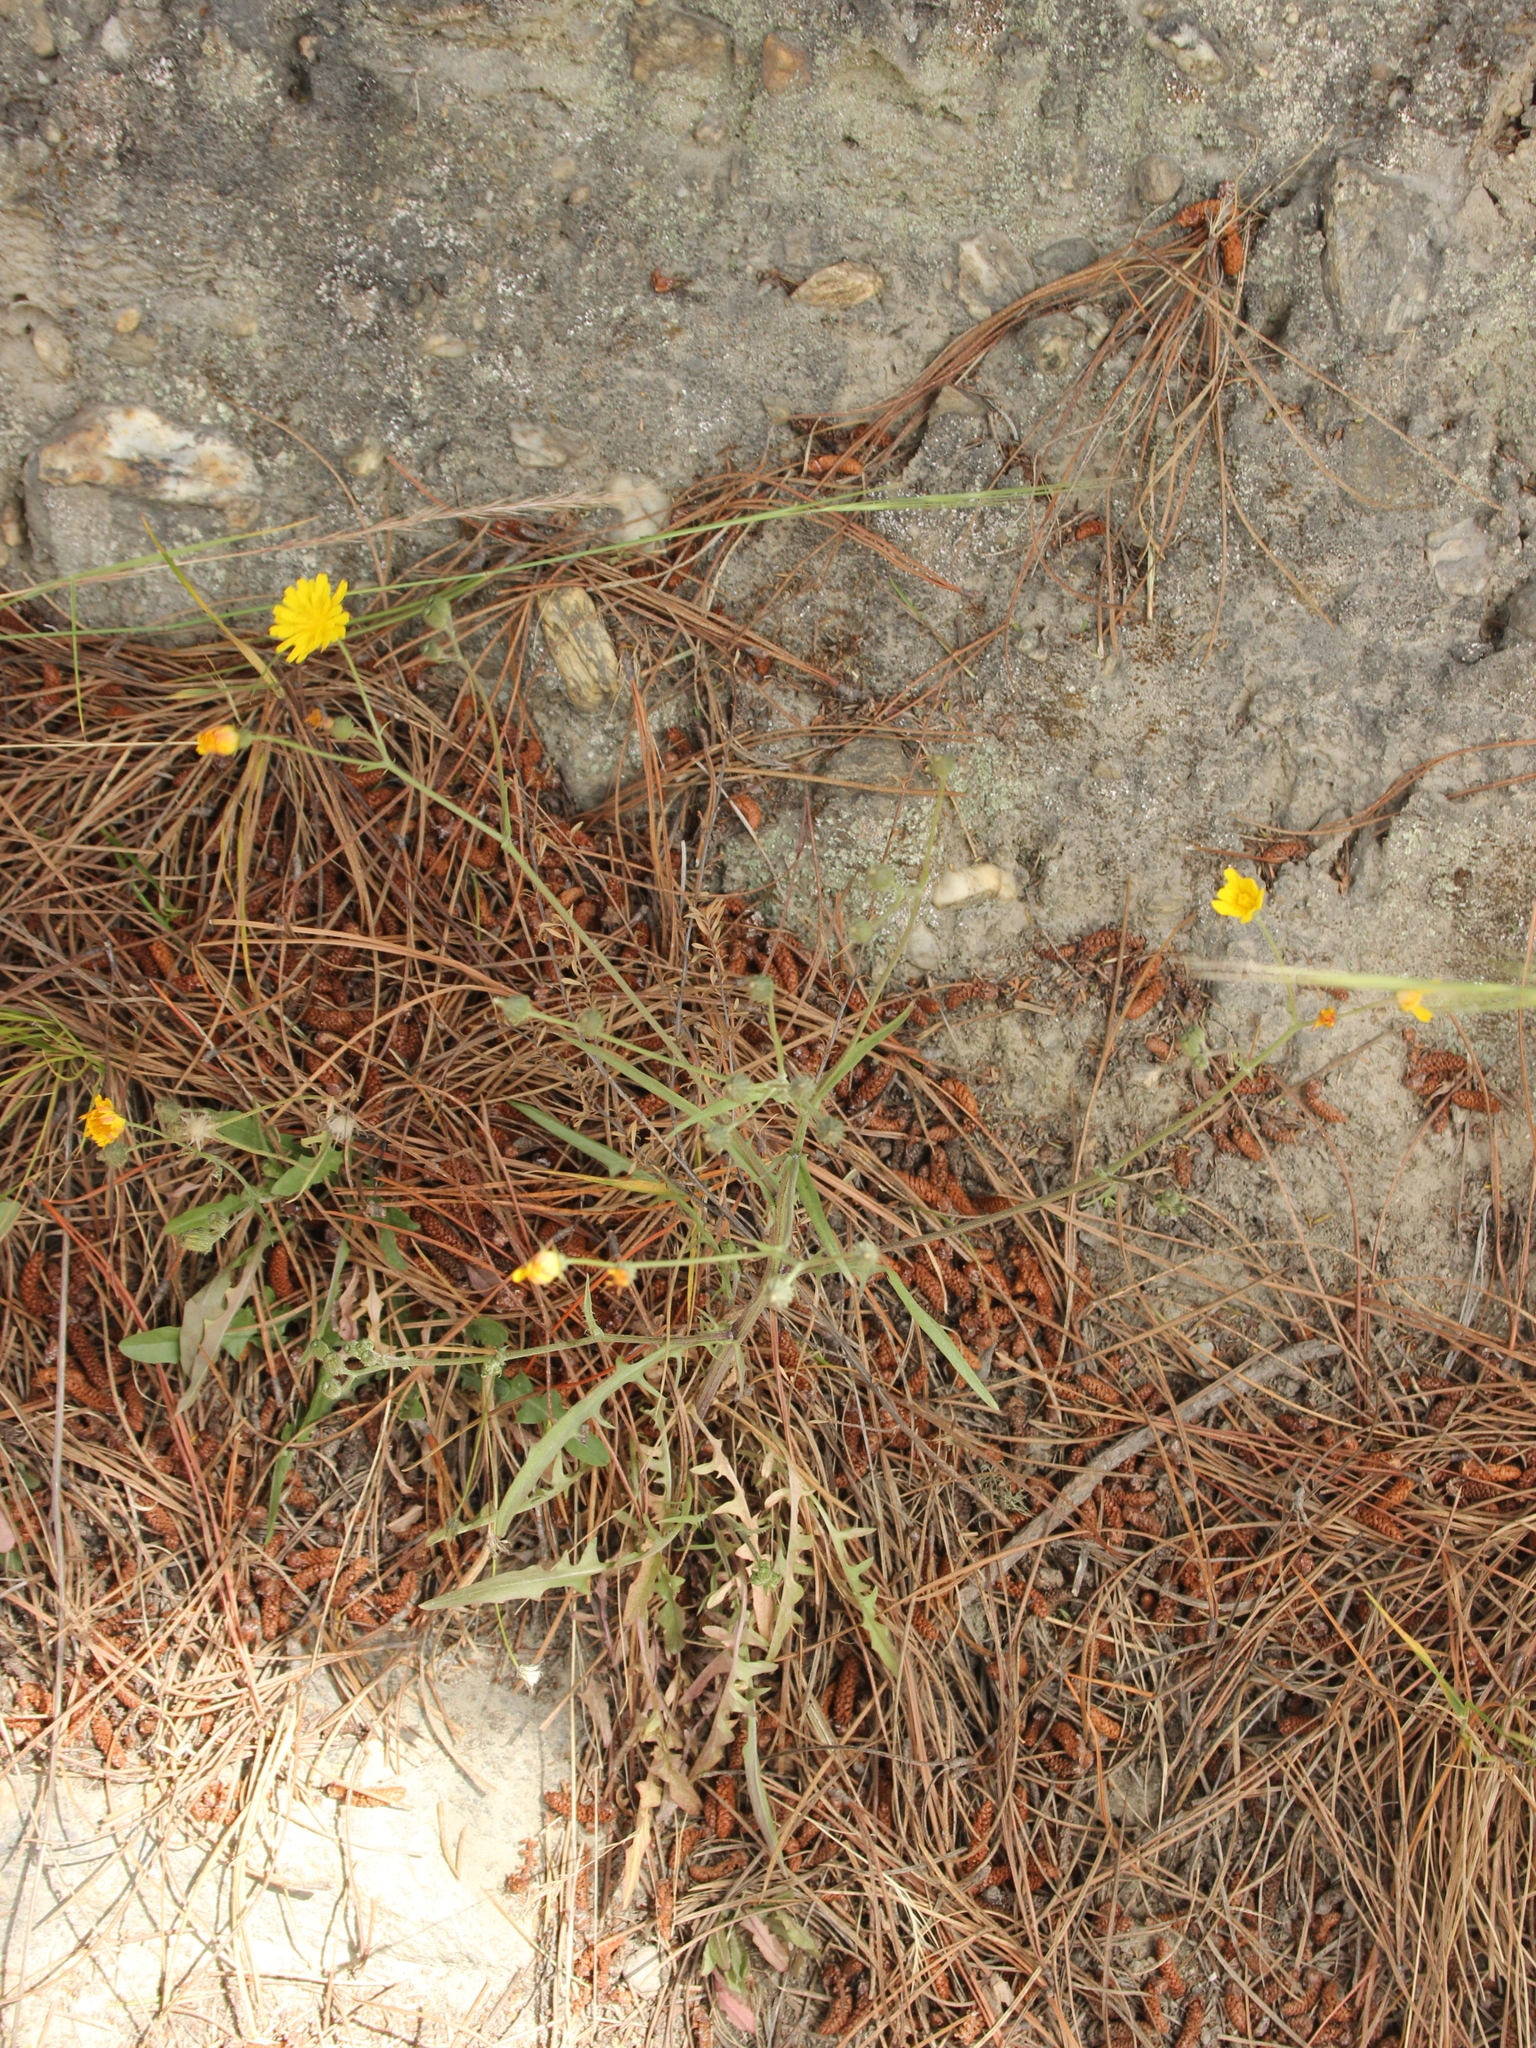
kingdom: Plantae
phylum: Tracheophyta
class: Magnoliopsida
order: Asterales
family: Asteraceae
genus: Crepis
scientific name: Crepis capillaris
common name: Smooth hawksbeard
